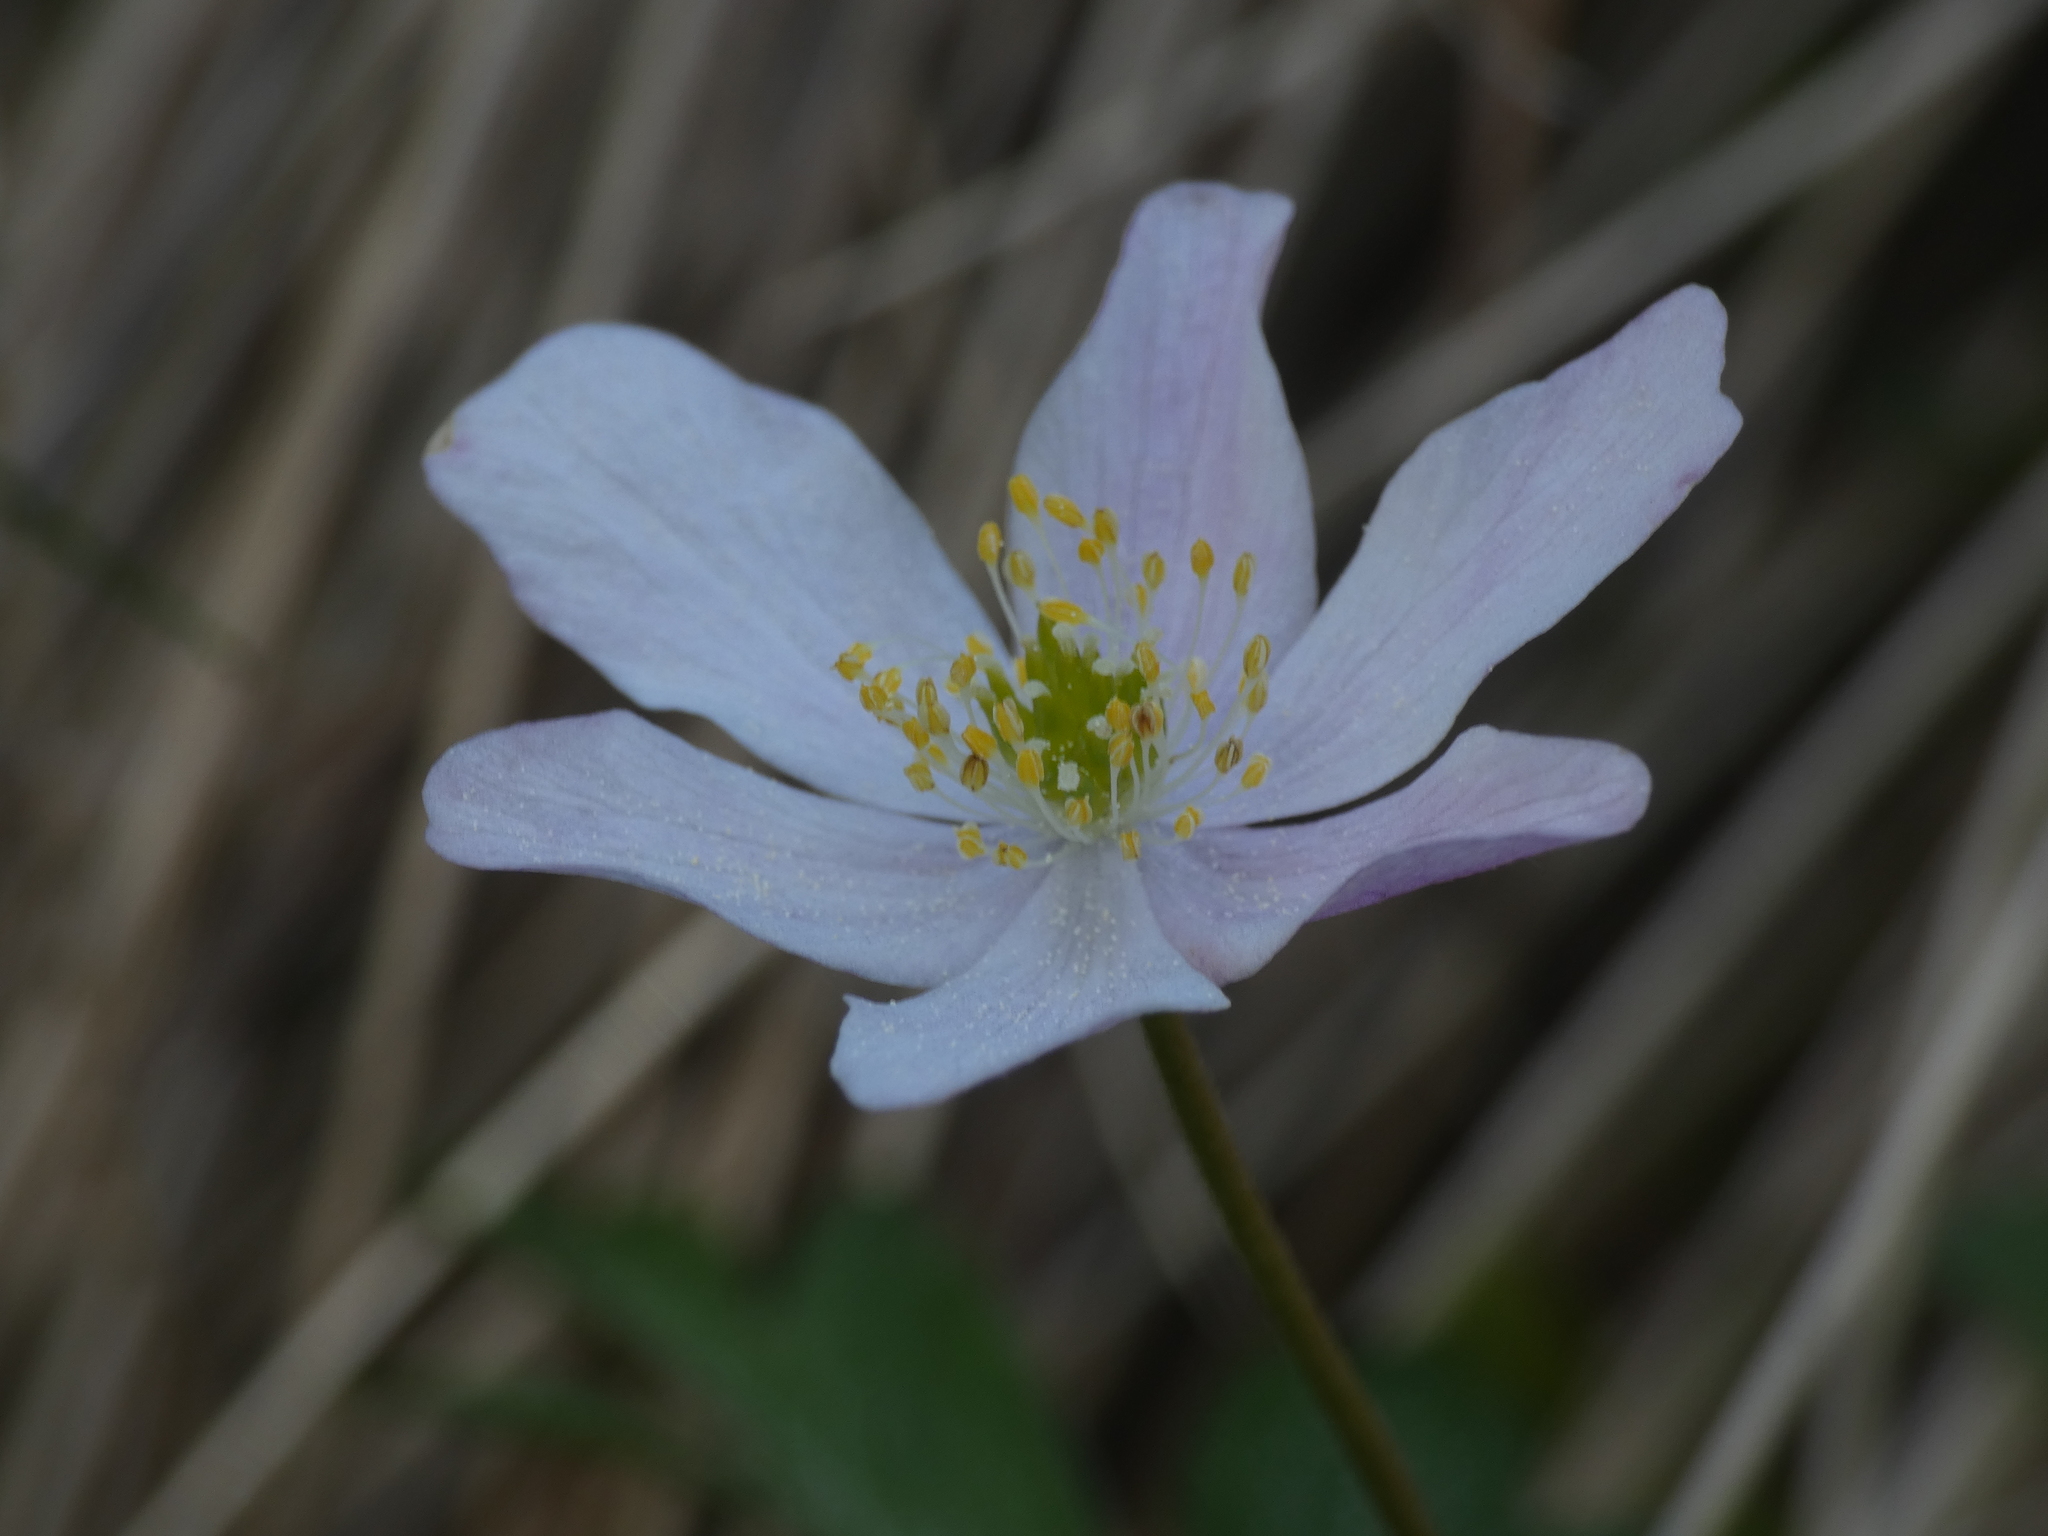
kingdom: Plantae
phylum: Tracheophyta
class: Magnoliopsida
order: Ranunculales
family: Ranunculaceae
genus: Anemone
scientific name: Anemone nemorosa
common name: Wood anemone
